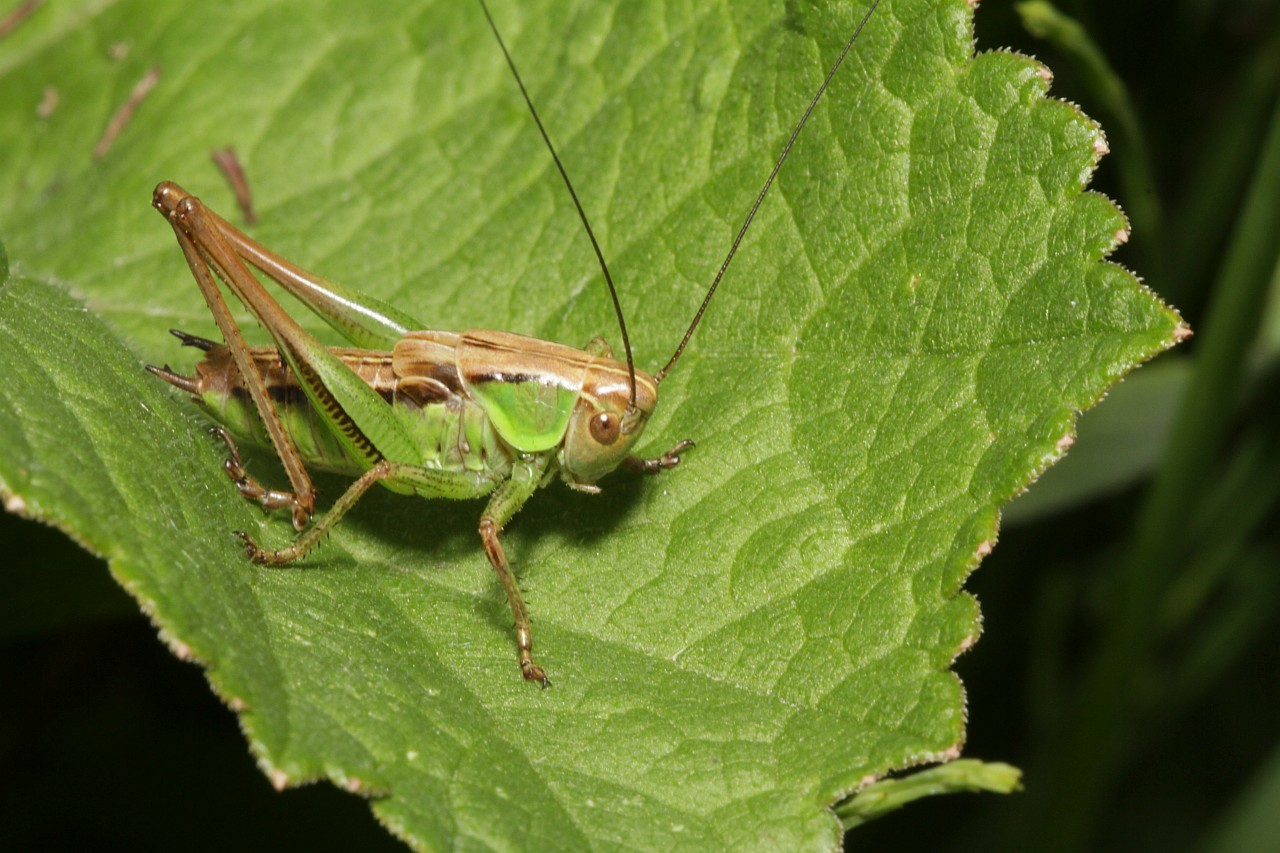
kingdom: Animalia
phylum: Arthropoda
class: Insecta
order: Orthoptera
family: Tettigoniidae
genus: Roeseliana
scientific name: Roeseliana roeselii
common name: Roesel's bush cricket
